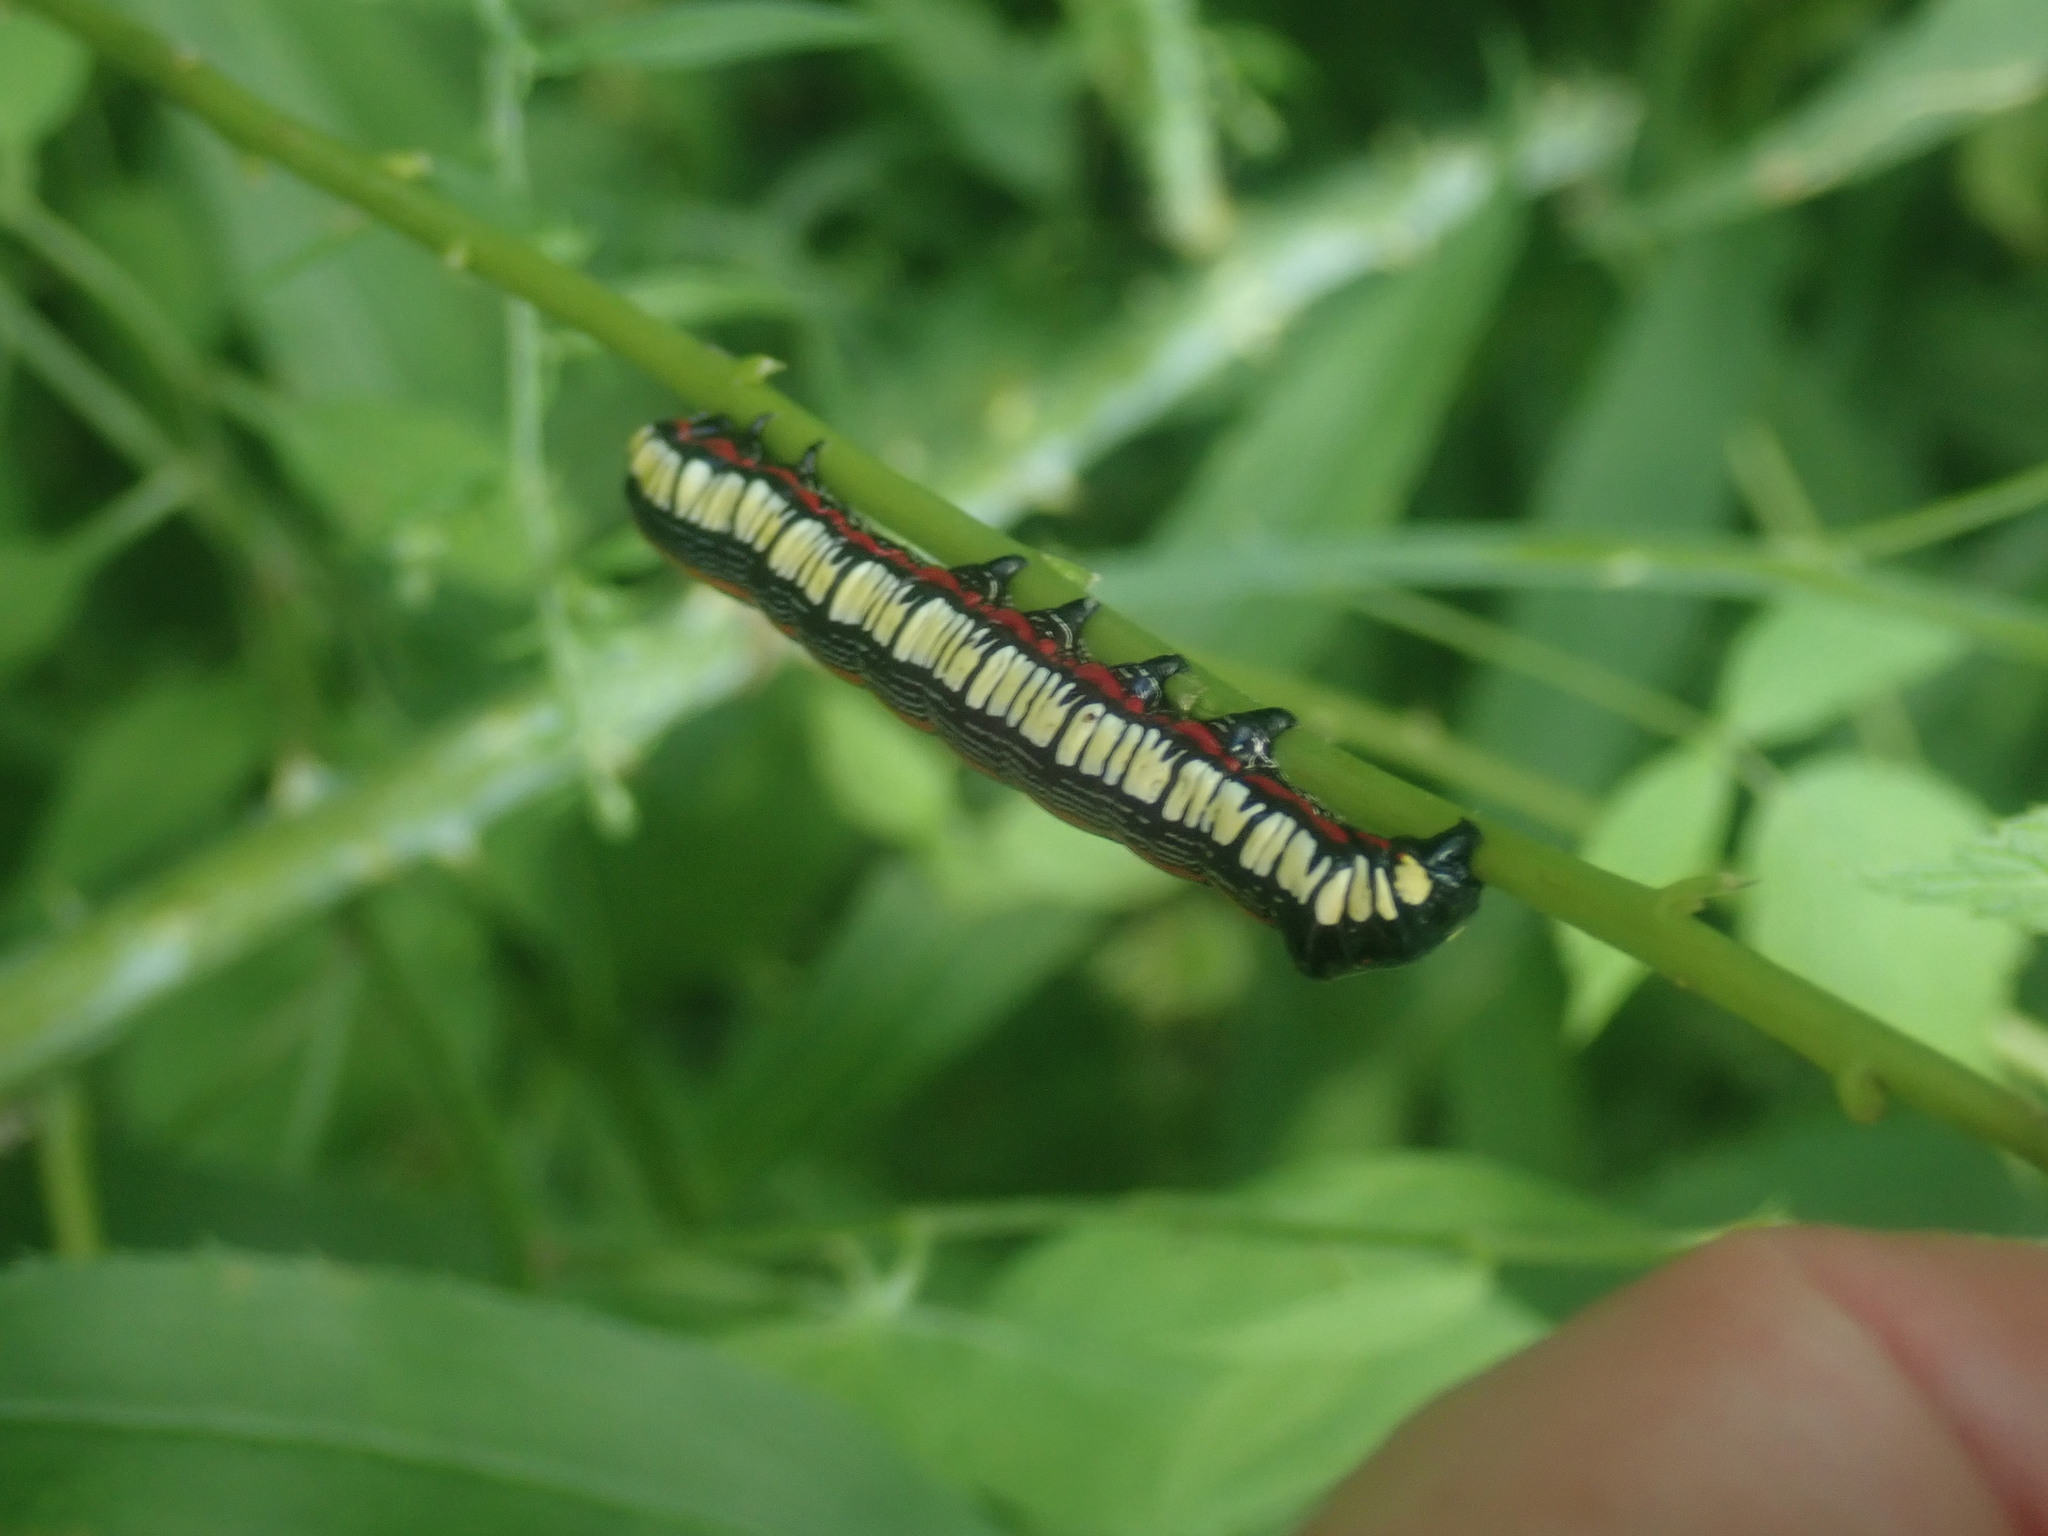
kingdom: Animalia
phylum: Arthropoda
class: Insecta
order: Lepidoptera
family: Noctuidae
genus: Cucullia
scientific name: Cucullia convexipennis
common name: Brown-hooded owlet
